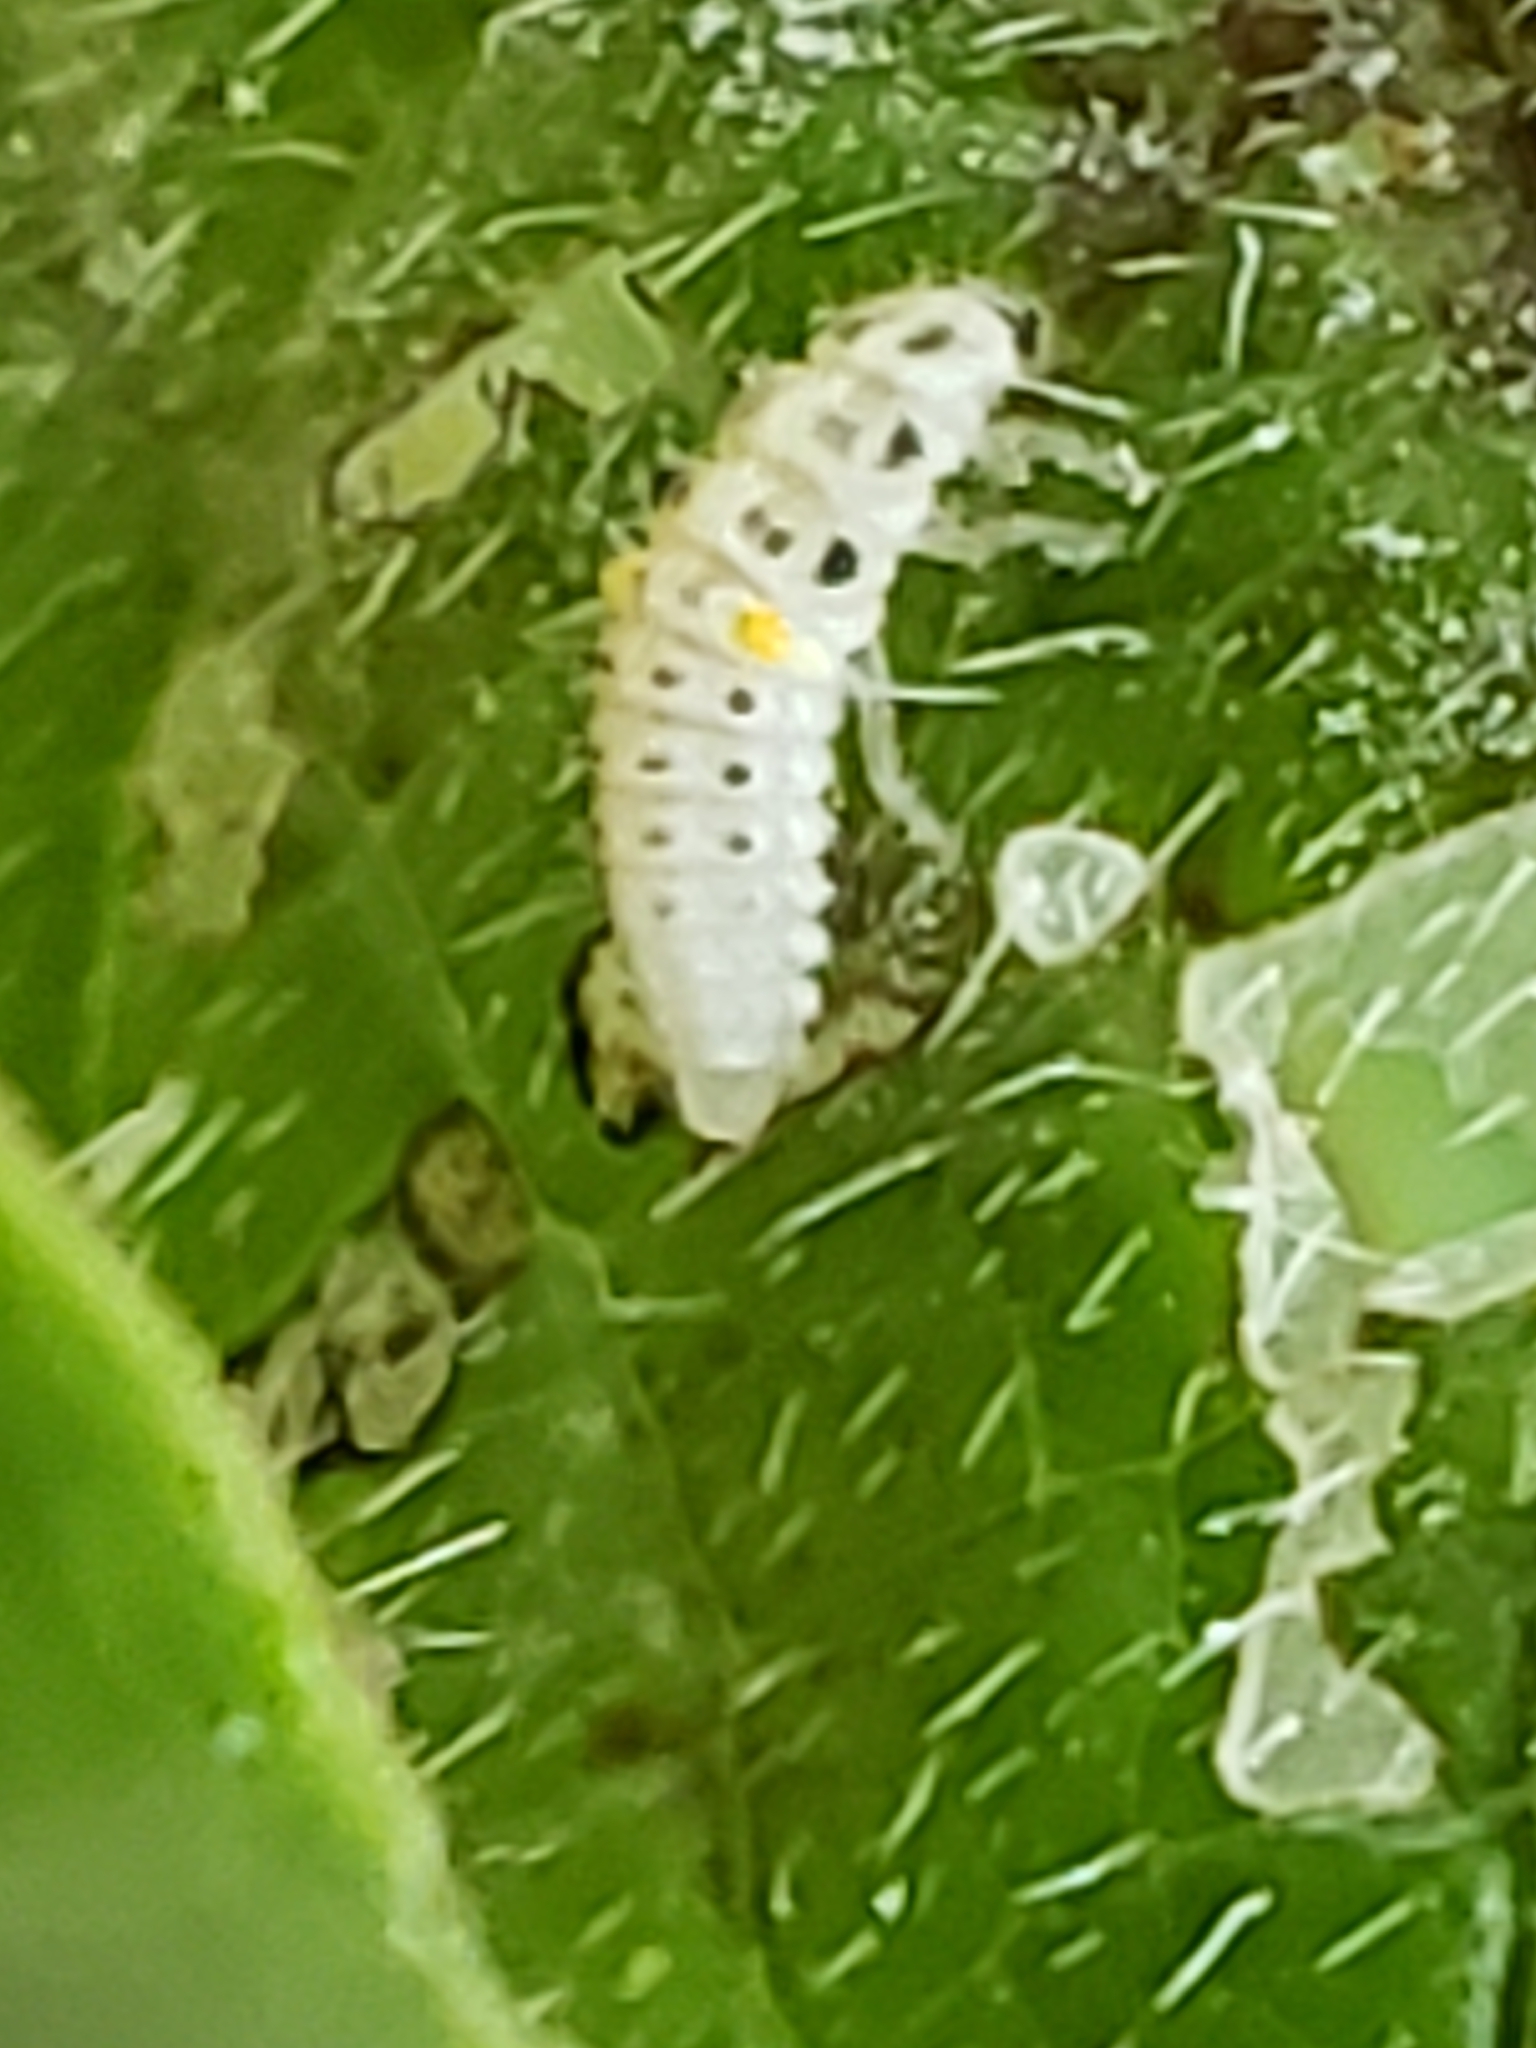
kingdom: Animalia
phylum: Arthropoda
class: Insecta
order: Coleoptera
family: Coccinellidae
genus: Psyllobora
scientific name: Psyllobora vigintimaculata
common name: Ladybird beetle
